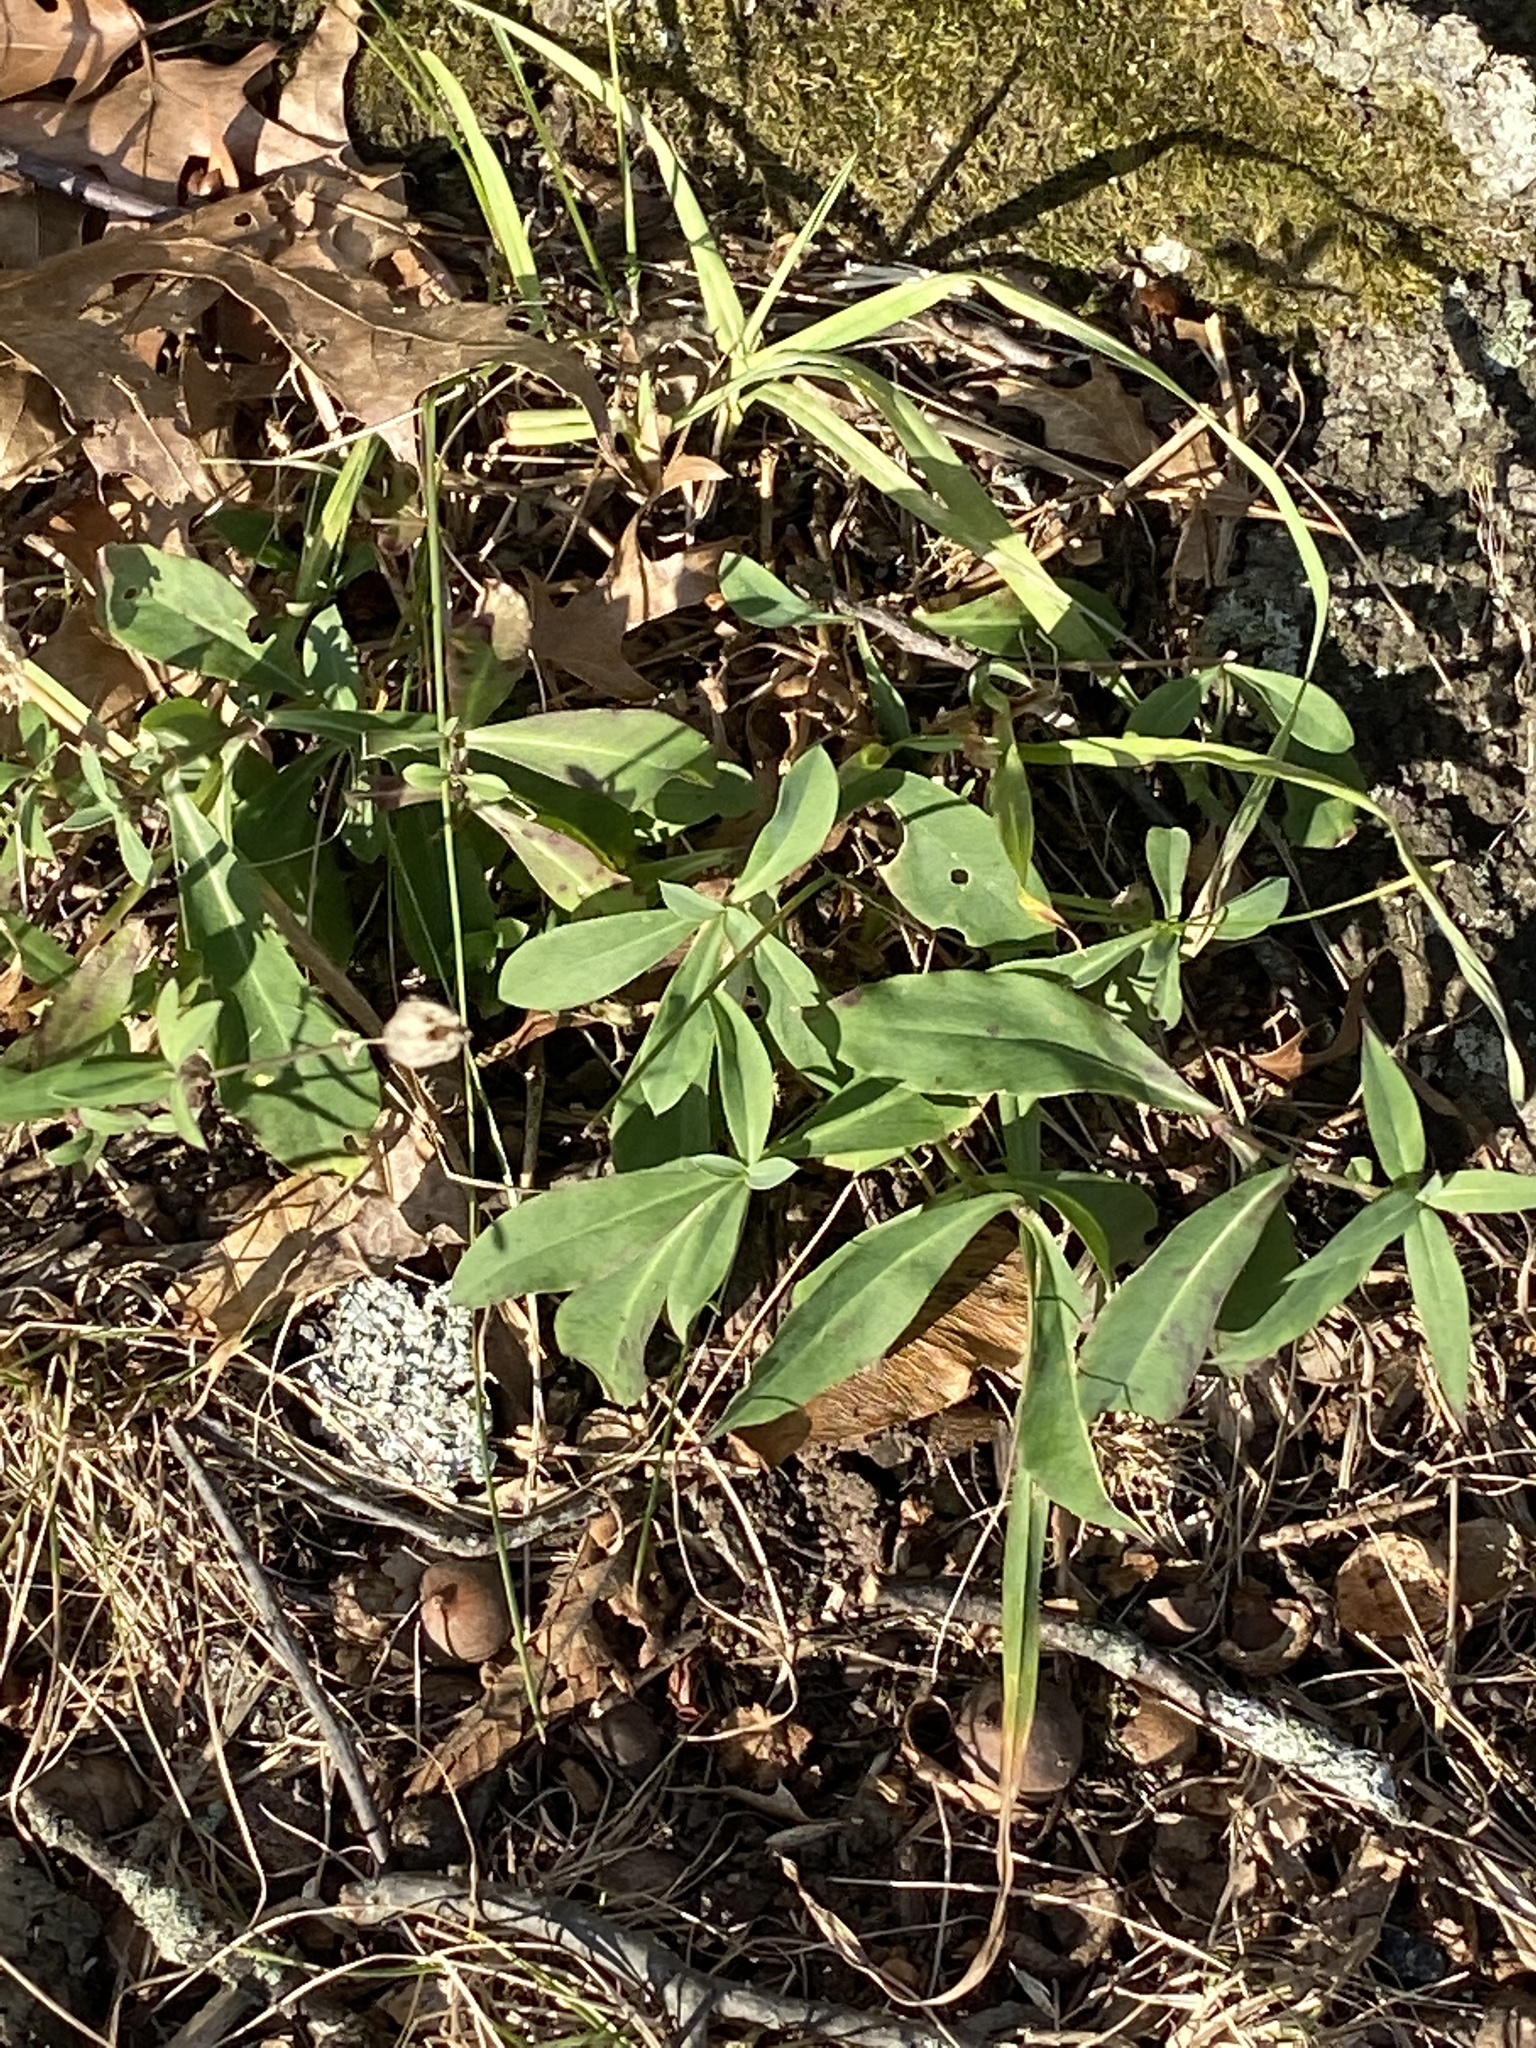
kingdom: Plantae
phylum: Tracheophyta
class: Magnoliopsida
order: Caryophyllales
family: Caryophyllaceae
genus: Silene
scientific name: Silene vulgaris
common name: Bladder campion
